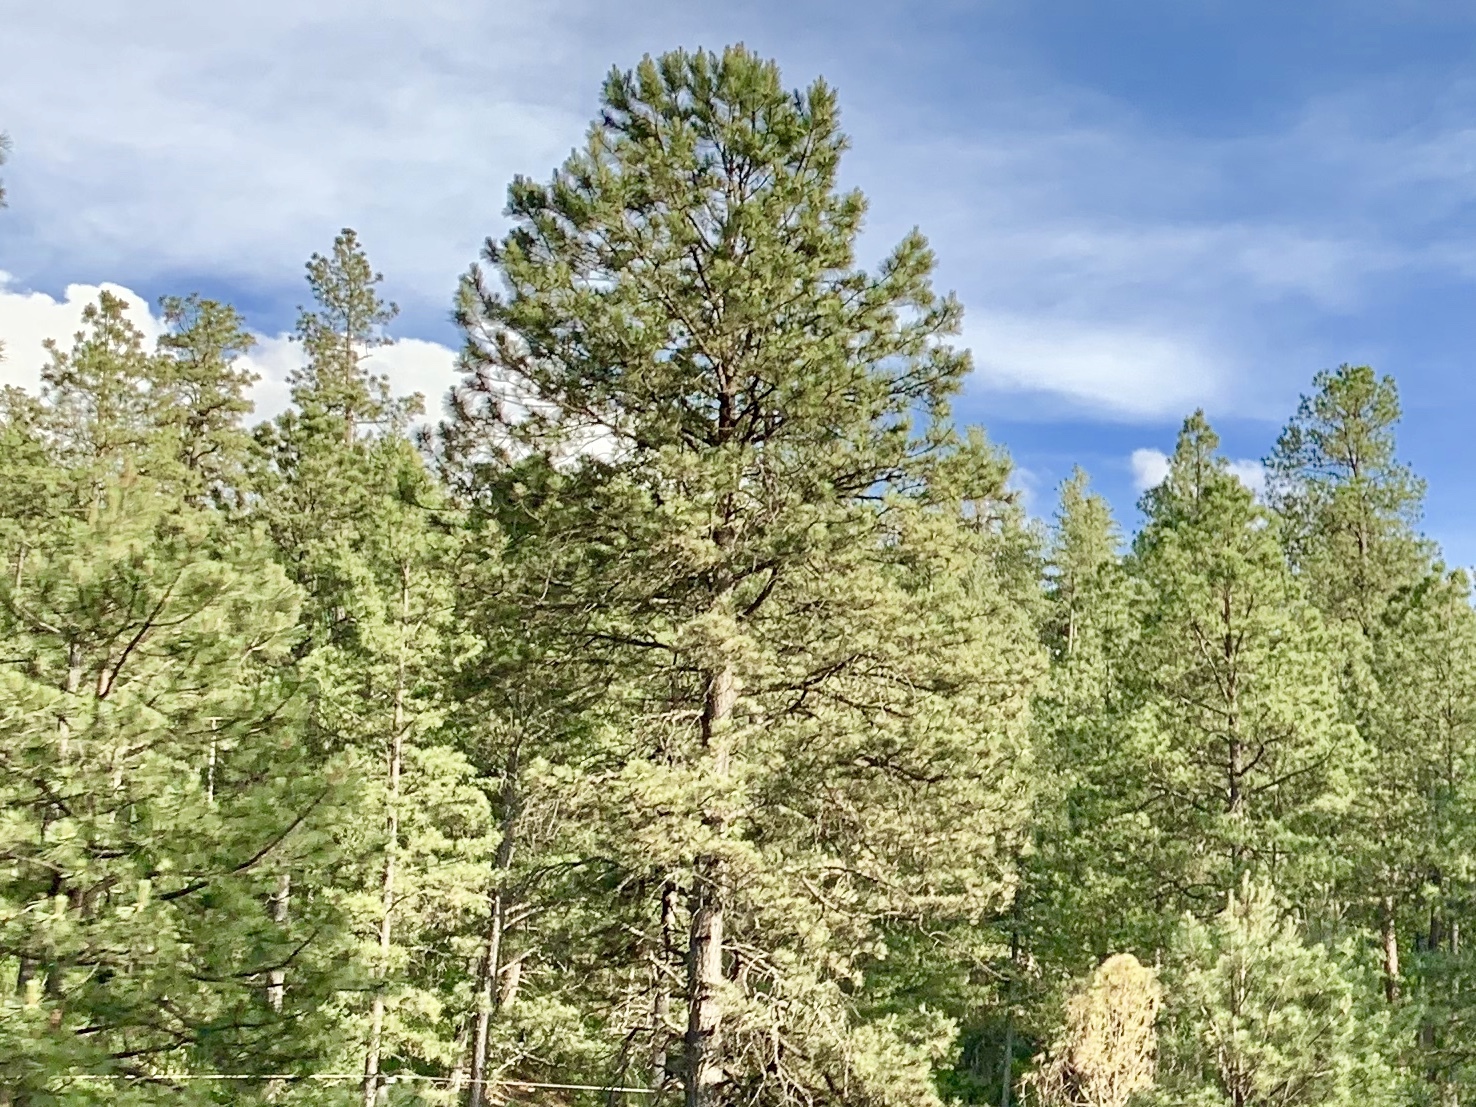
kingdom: Plantae
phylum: Tracheophyta
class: Pinopsida
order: Pinales
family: Pinaceae
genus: Pinus
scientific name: Pinus ponderosa
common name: Western yellow-pine
